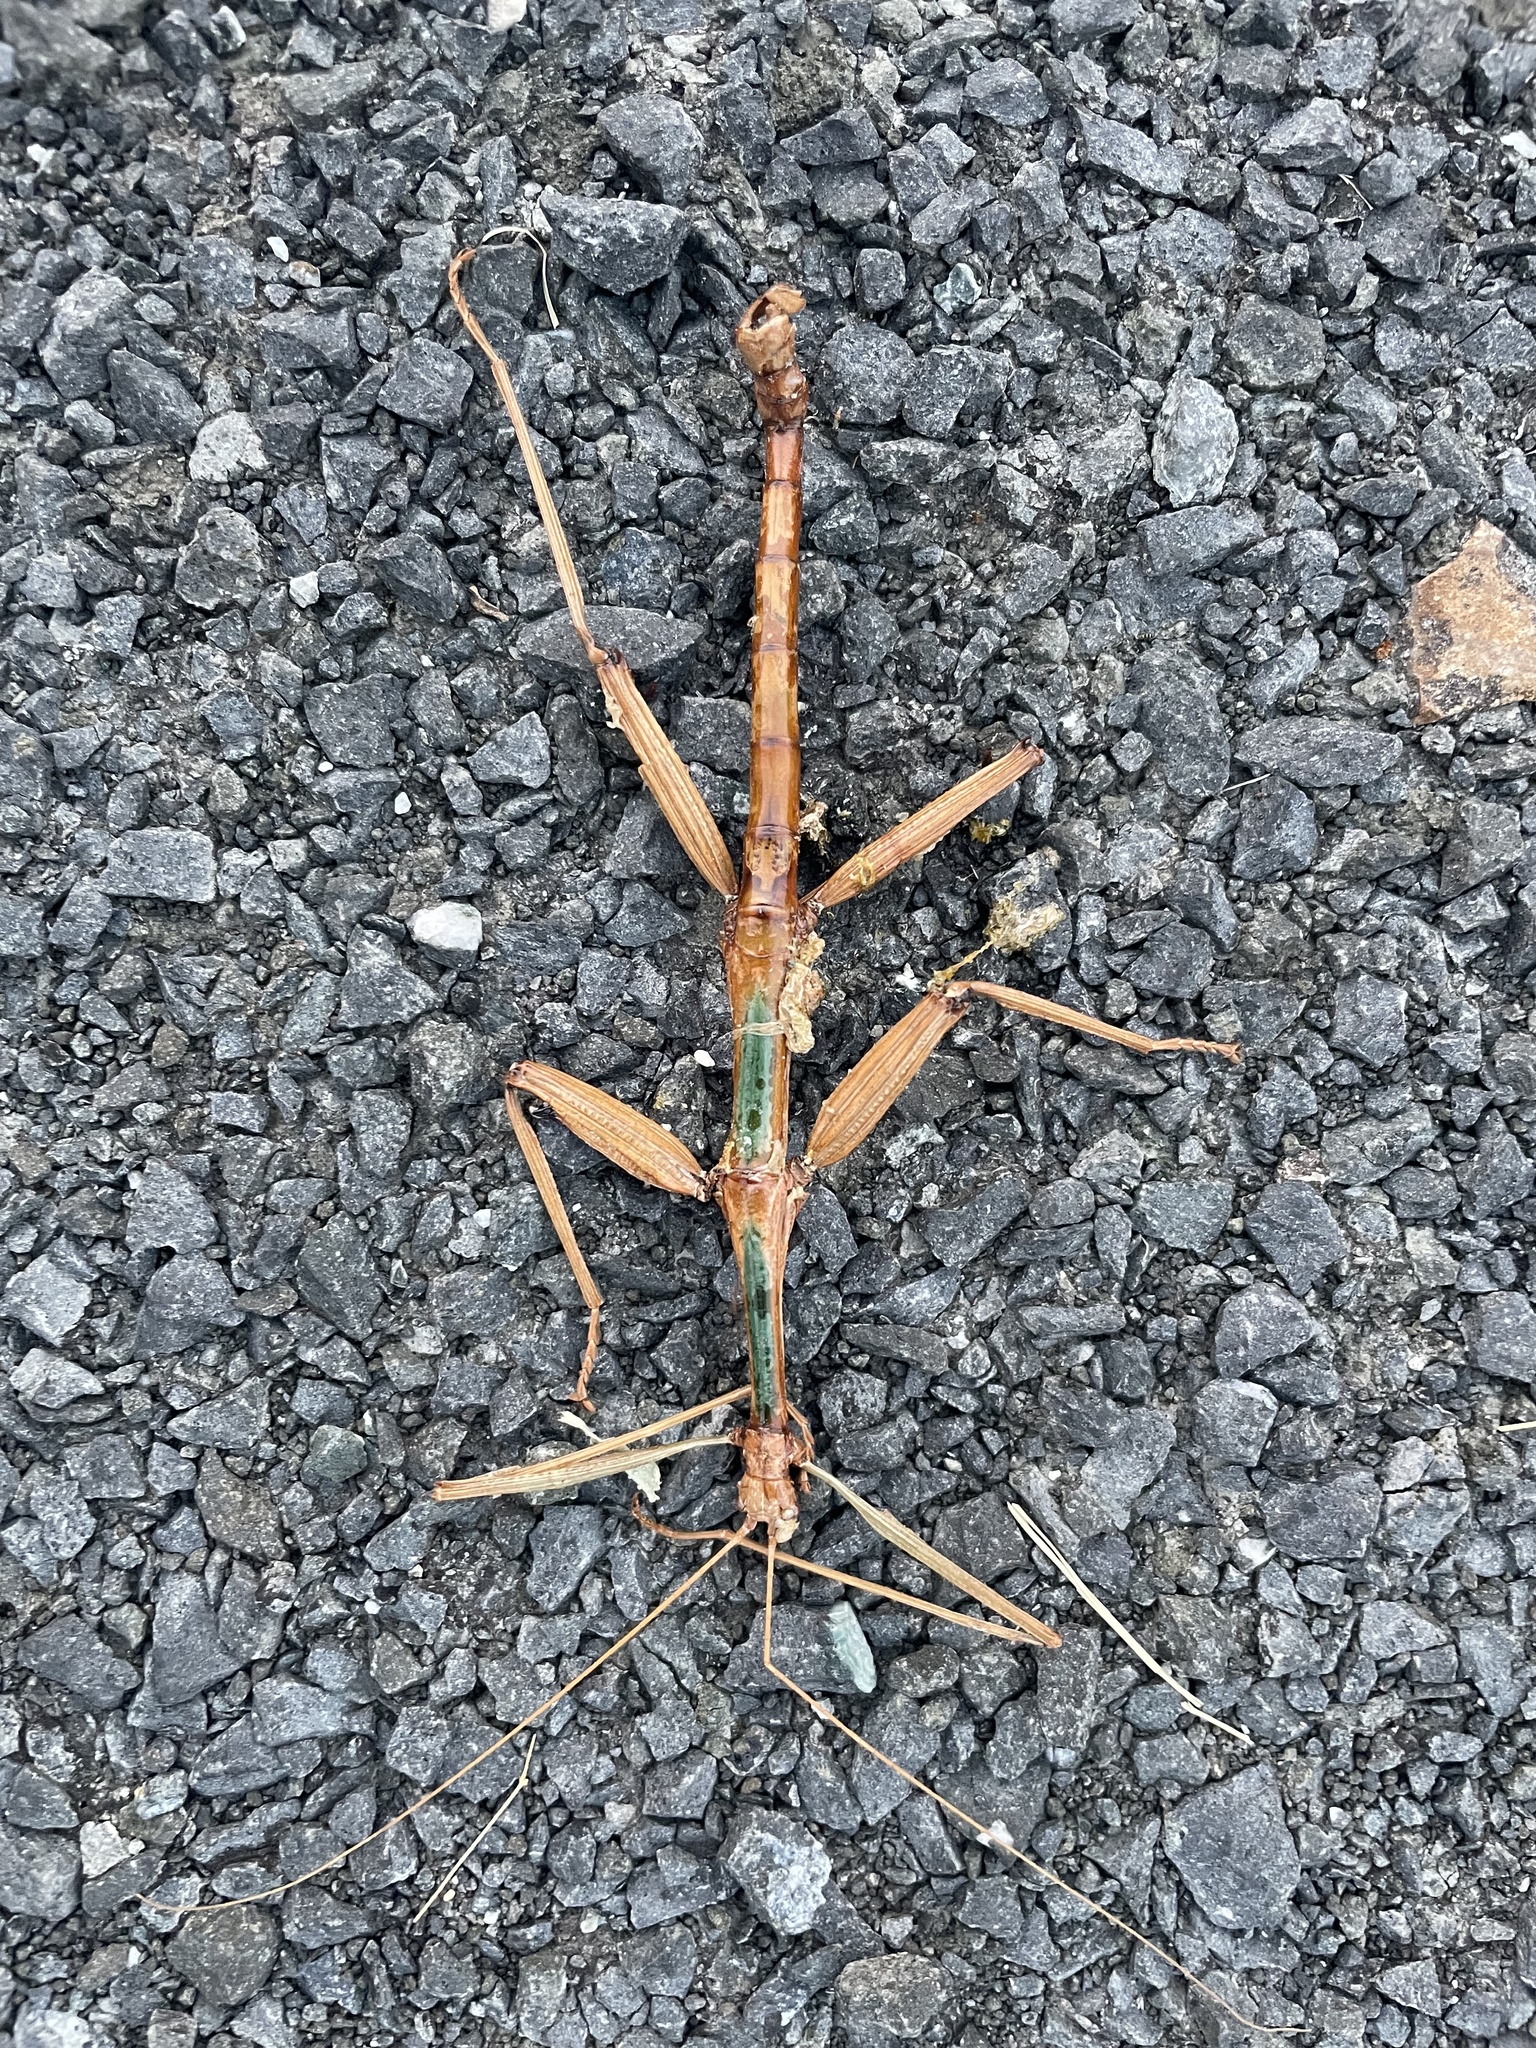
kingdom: Animalia
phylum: Arthropoda
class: Insecta
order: Phasmida
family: Diapheromeridae
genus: Megaphasma
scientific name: Megaphasma denticrus
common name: Giant walkingstick
